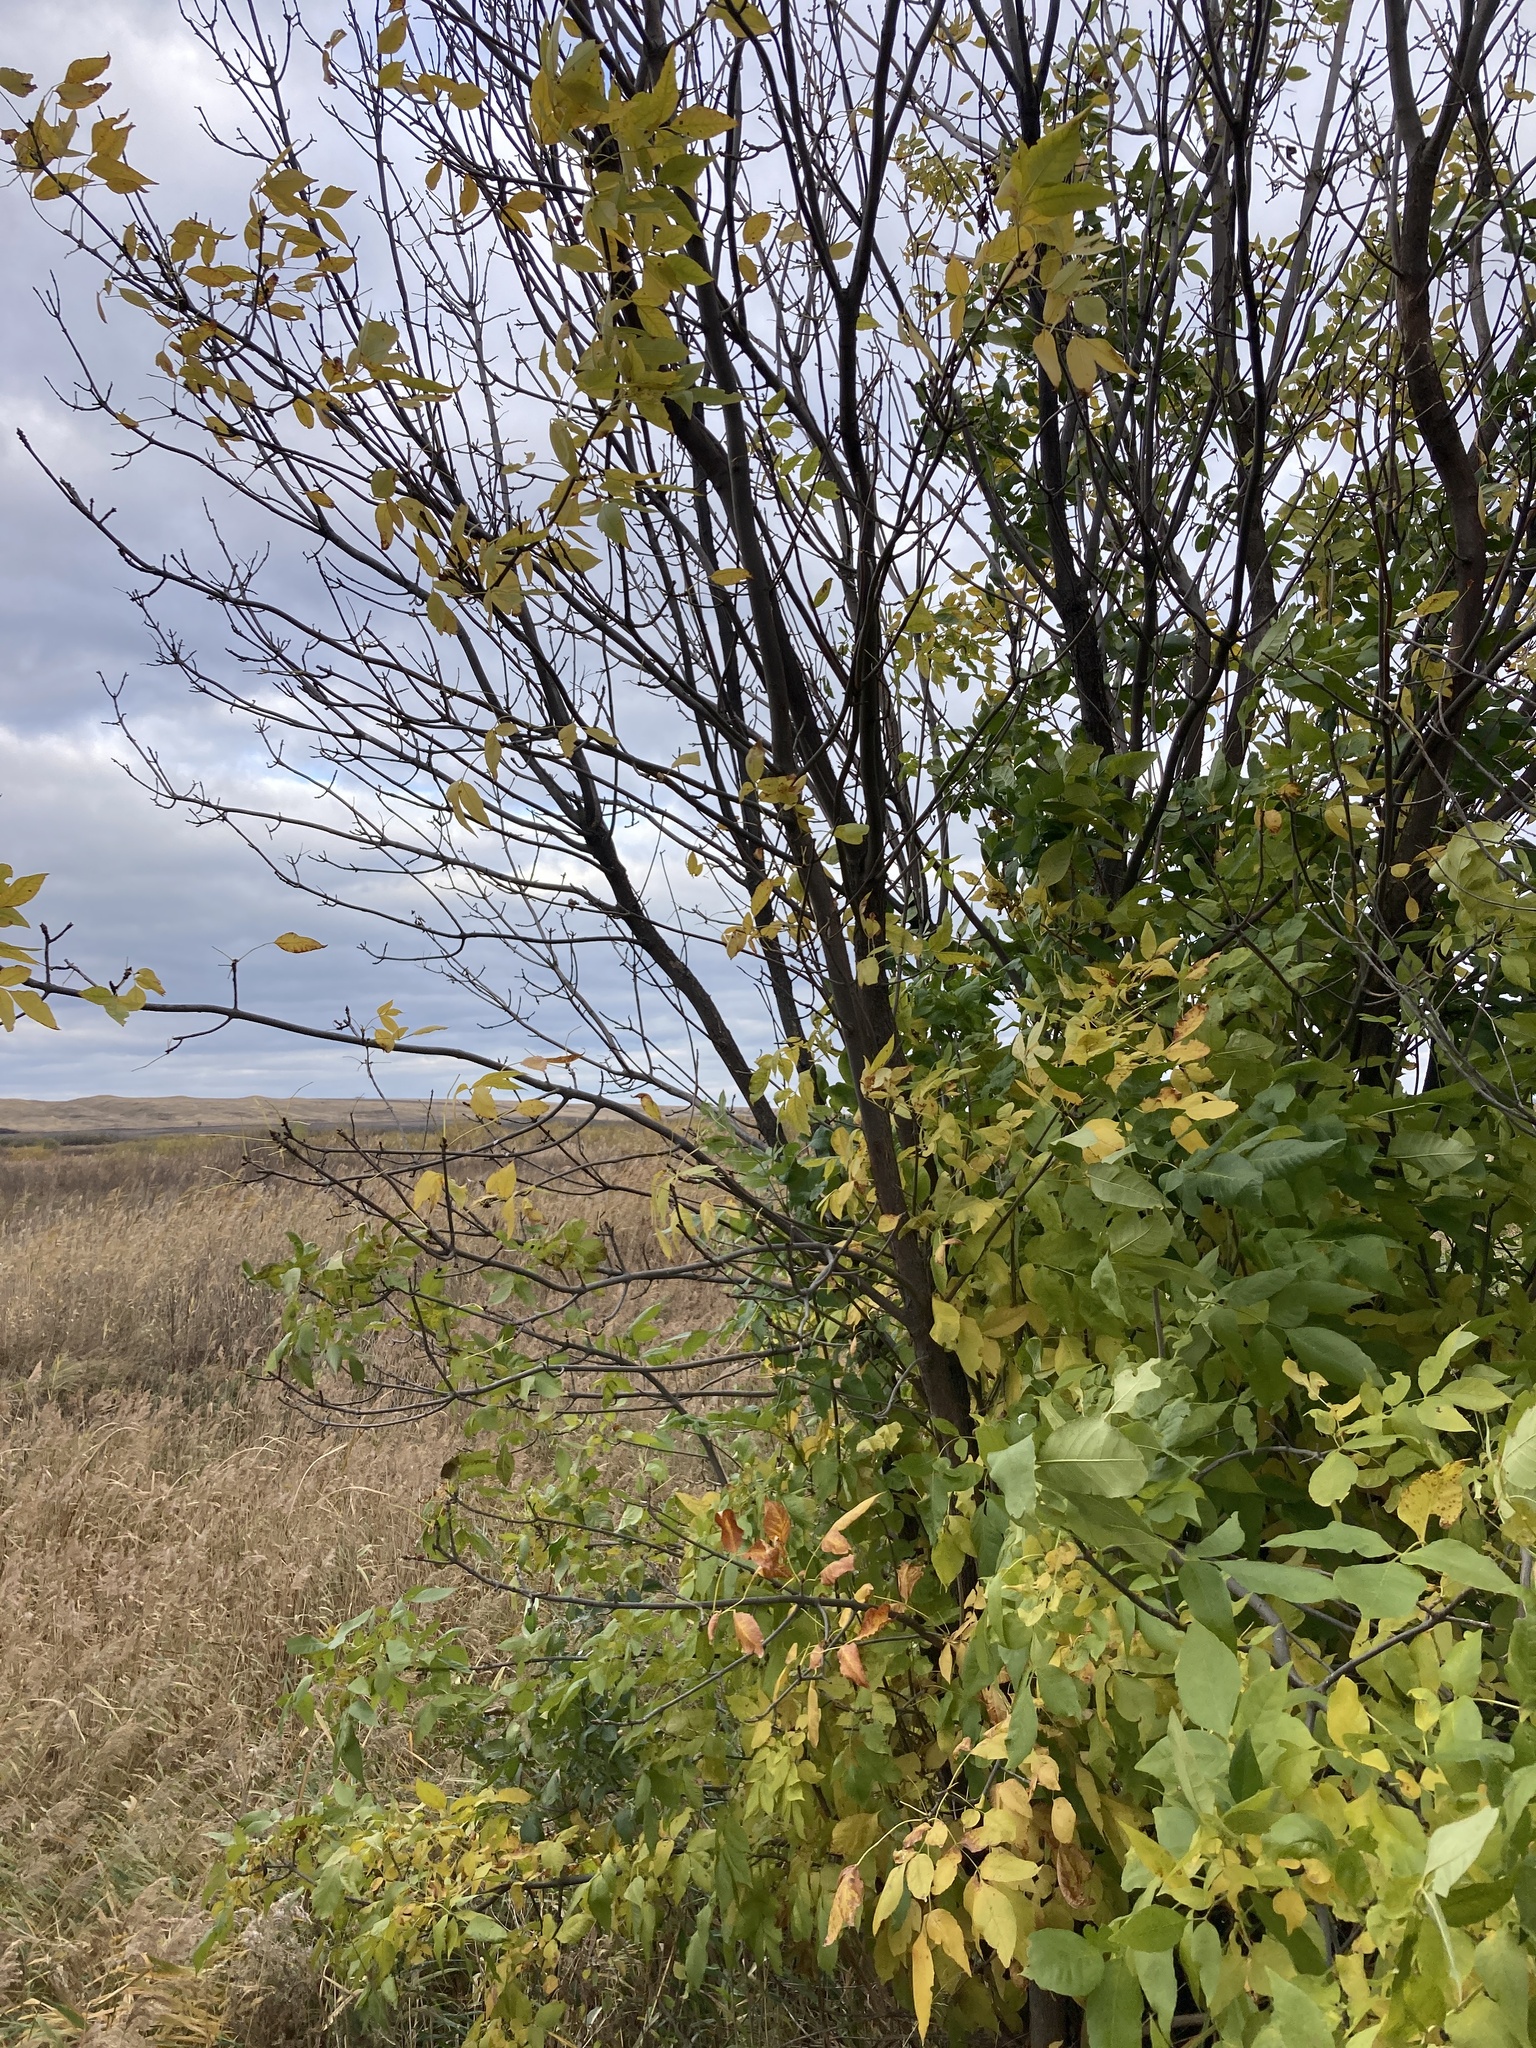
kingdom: Plantae
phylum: Tracheophyta
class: Magnoliopsida
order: Lamiales
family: Oleaceae
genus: Fraxinus
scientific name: Fraxinus pennsylvanica
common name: Green ash
